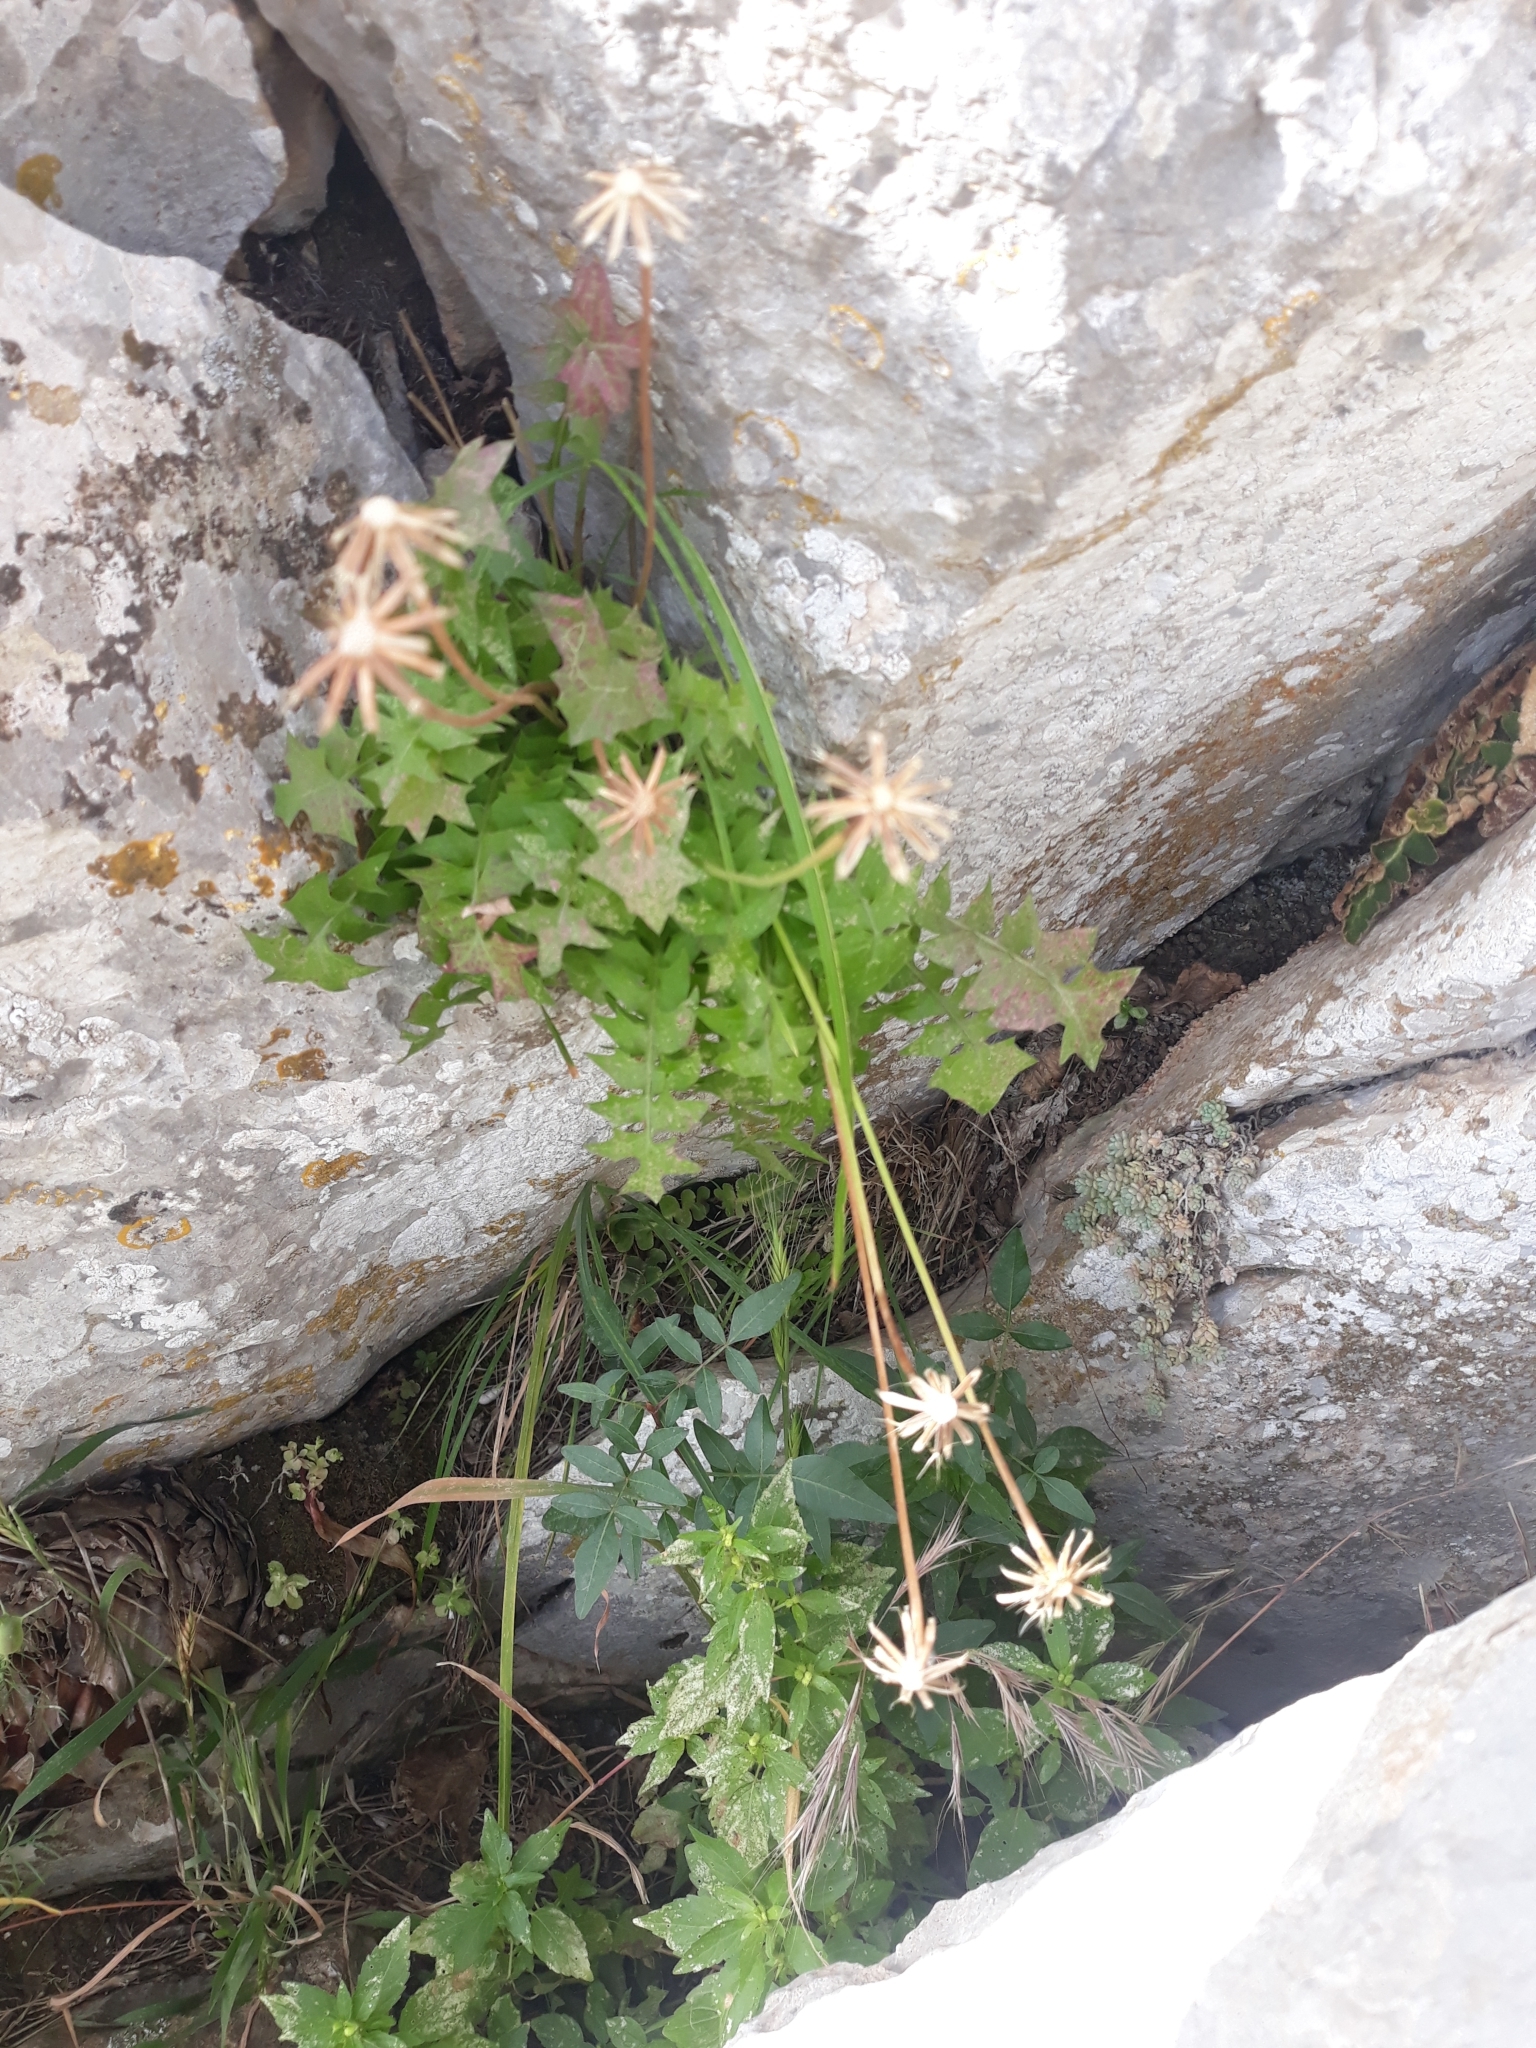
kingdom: Plantae
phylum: Tracheophyta
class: Magnoliopsida
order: Asterales
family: Asteraceae
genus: Hyoseris
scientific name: Hyoseris radiata
